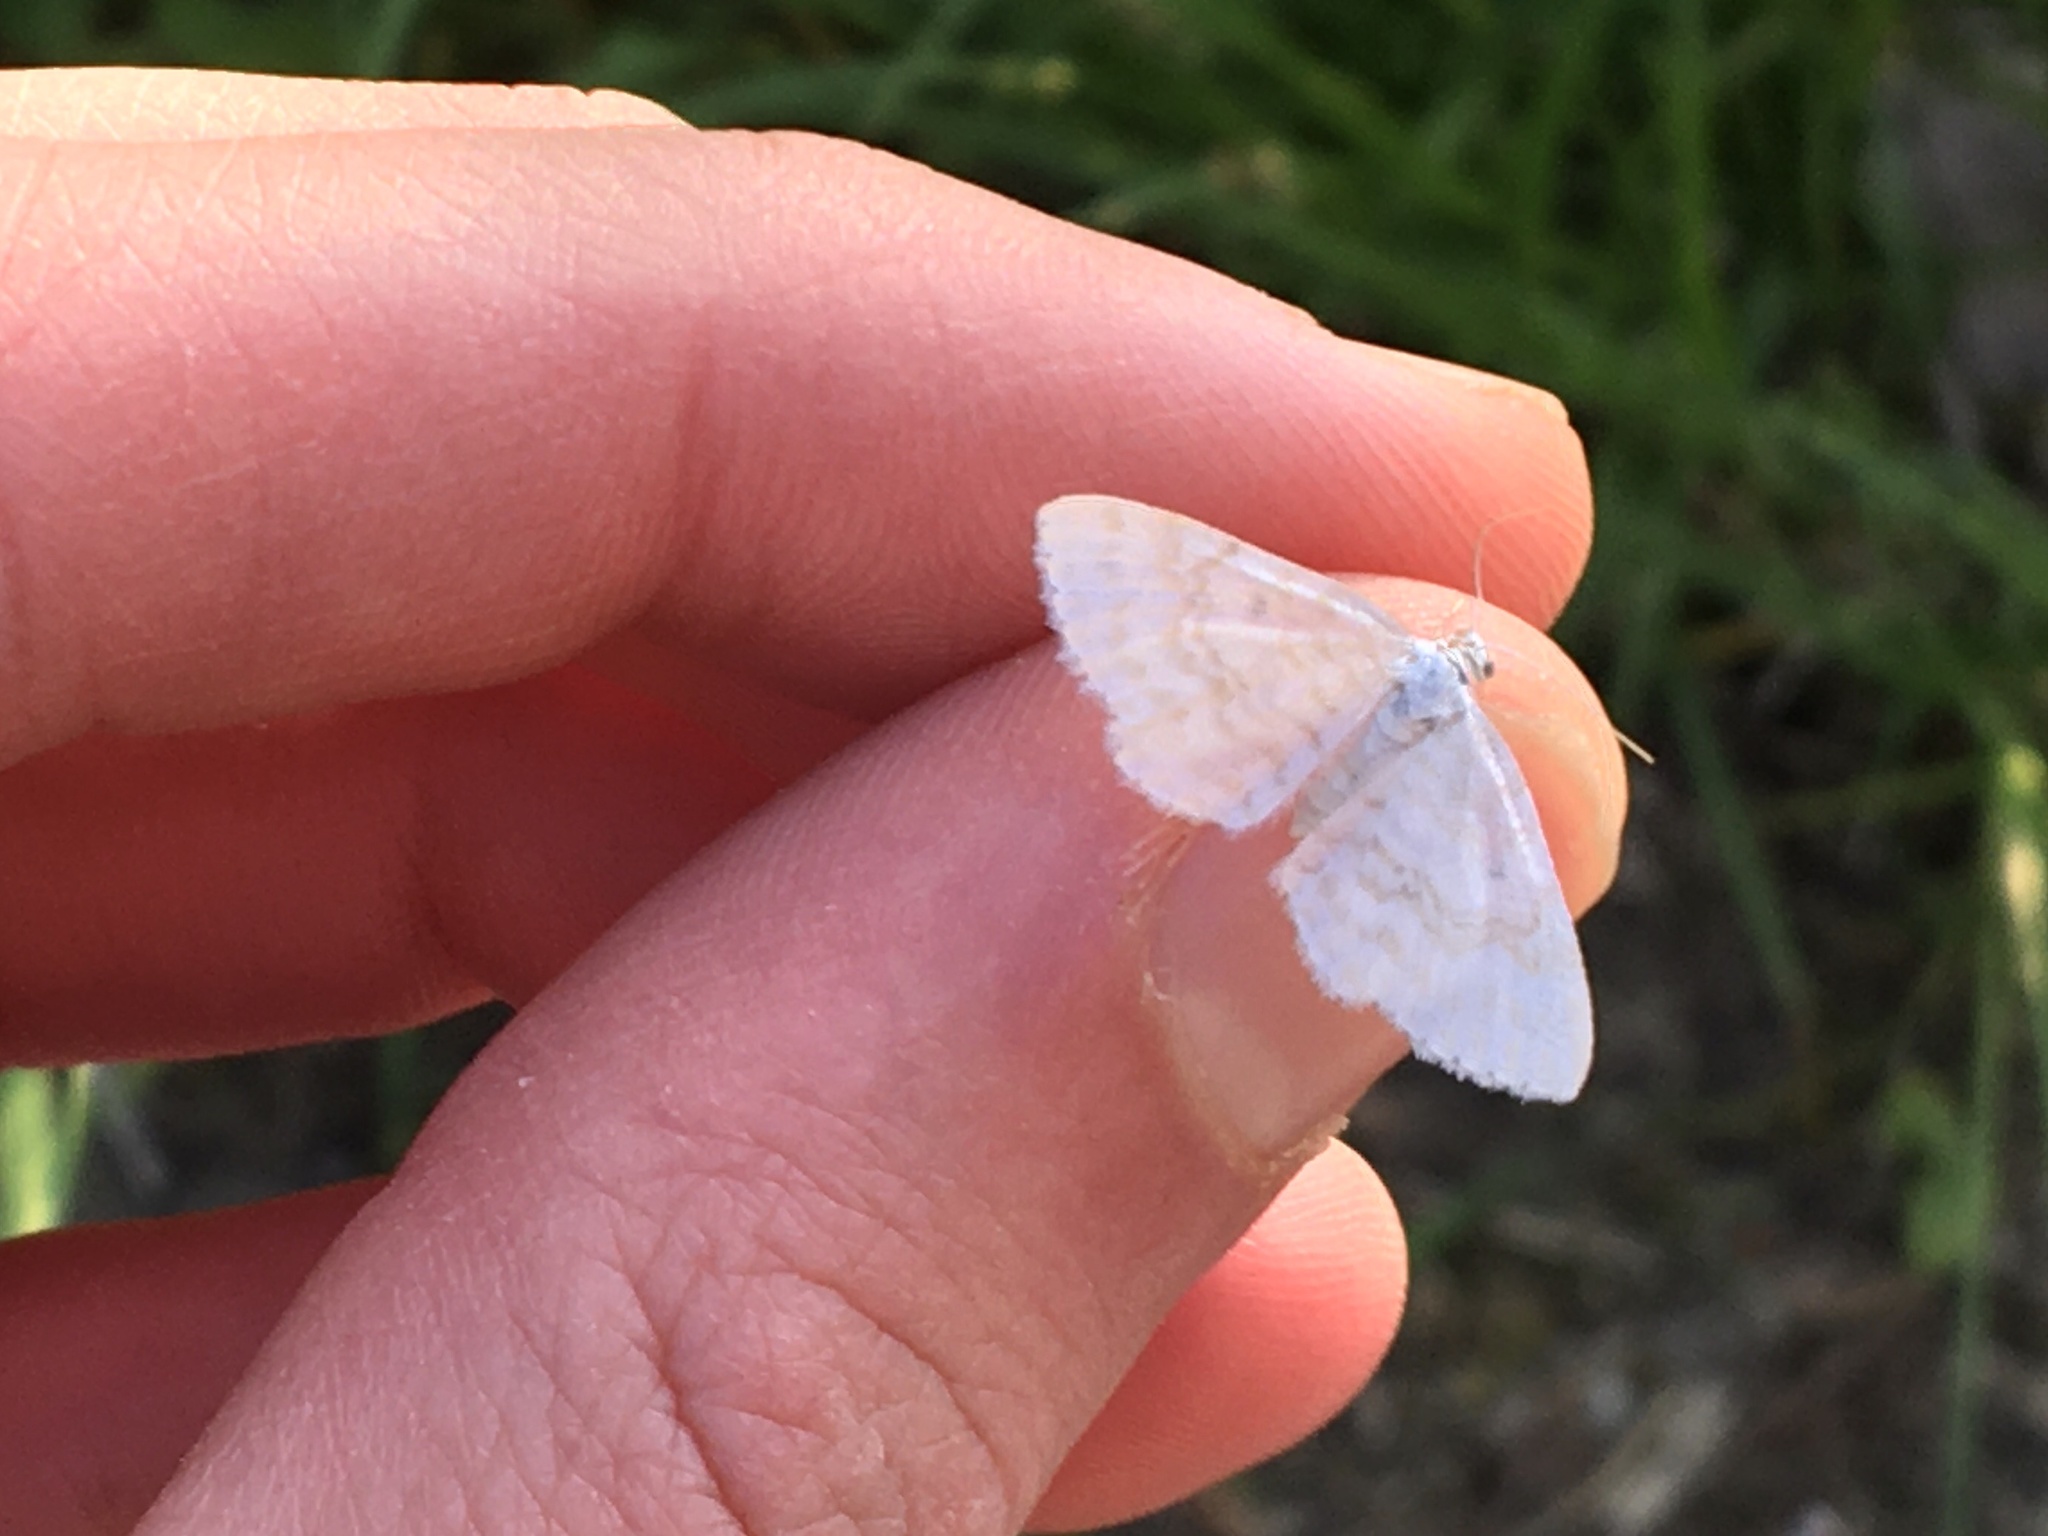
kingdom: Animalia
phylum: Arthropoda
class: Insecta
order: Lepidoptera
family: Geometridae
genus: Asthena
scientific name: Asthena albulata
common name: Small white wave
